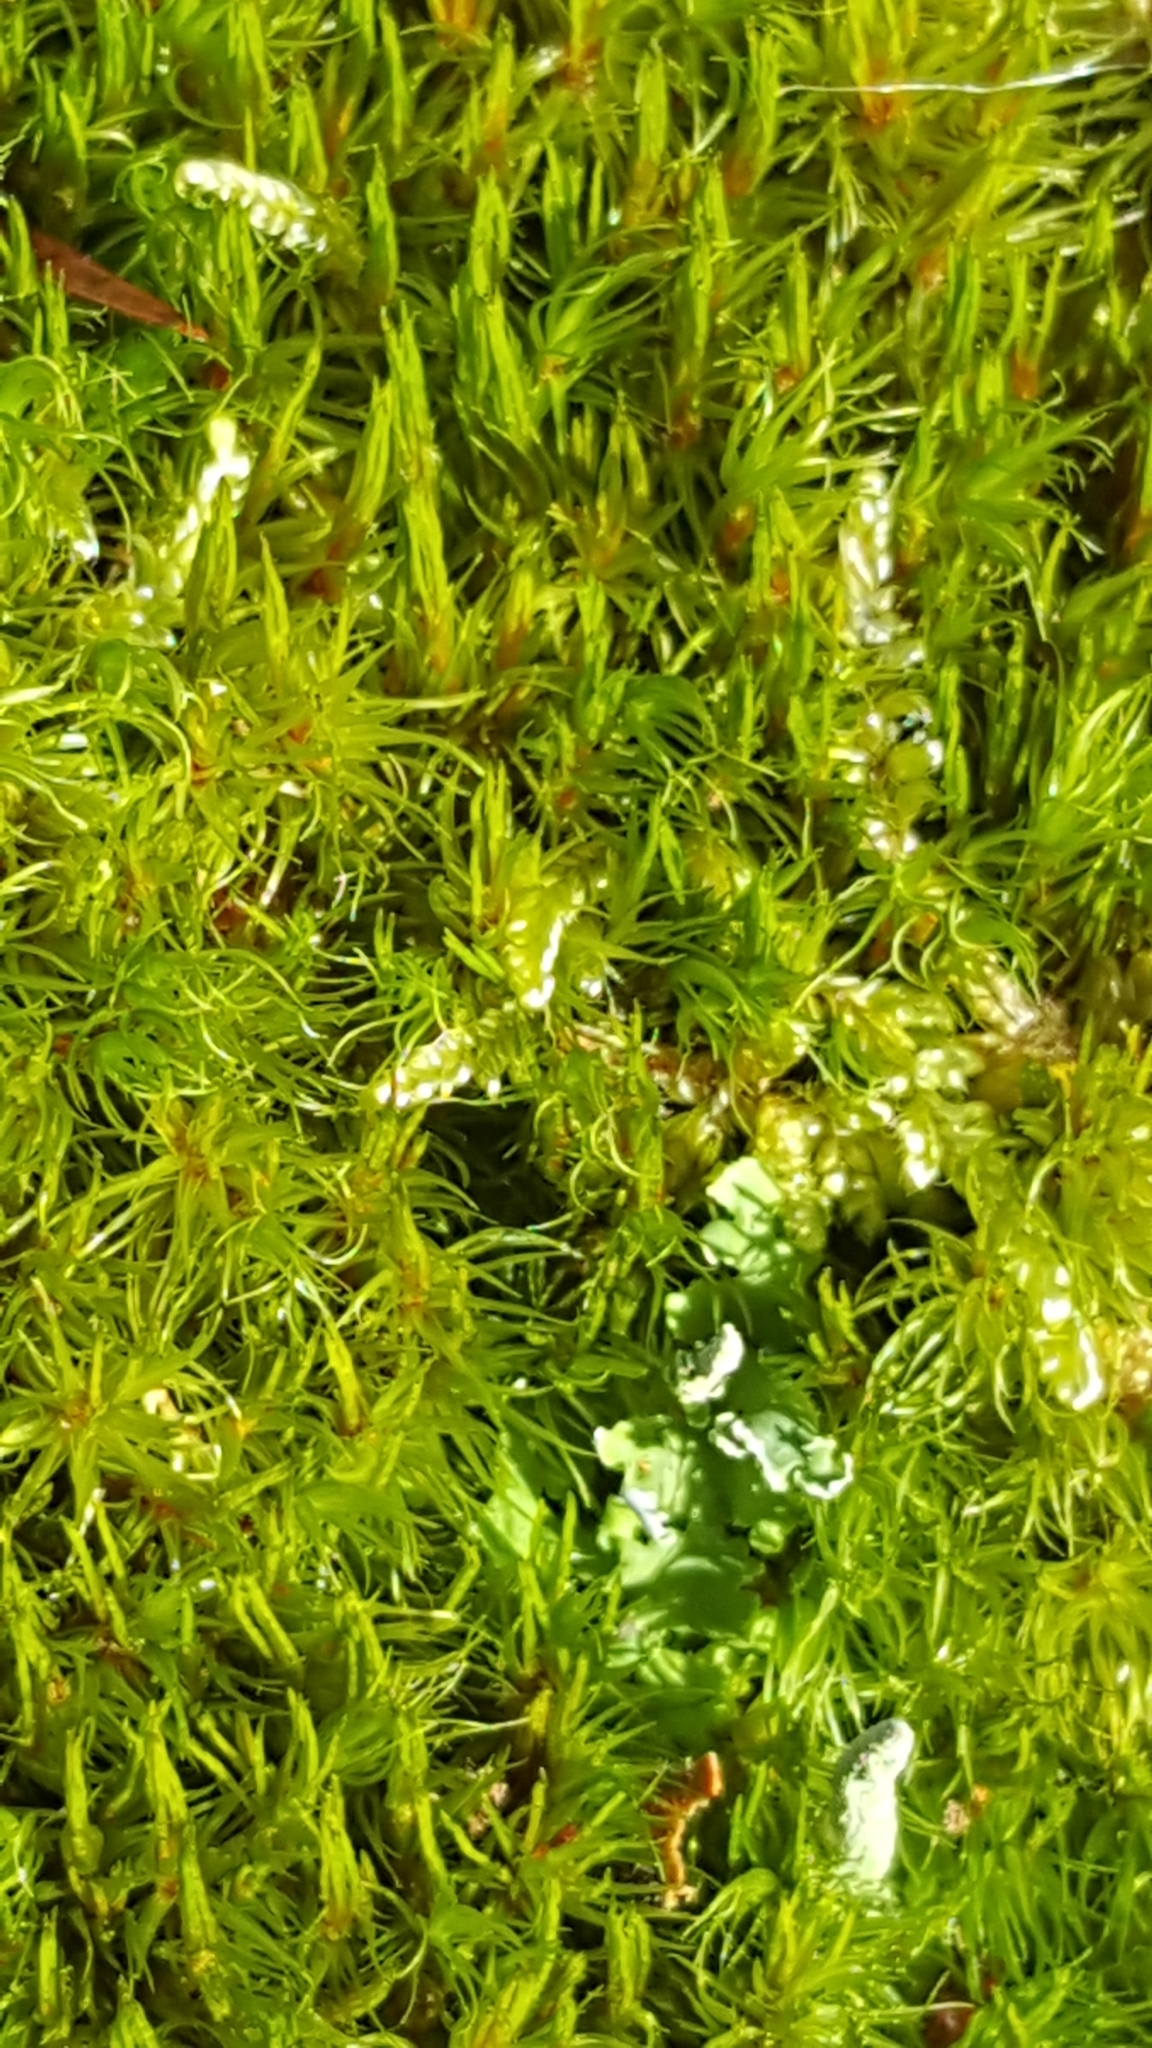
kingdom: Plantae
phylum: Bryophyta
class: Bryopsida
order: Dicranales
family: Dicranaceae
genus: Orthodicranum
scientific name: Orthodicranum flagellare
